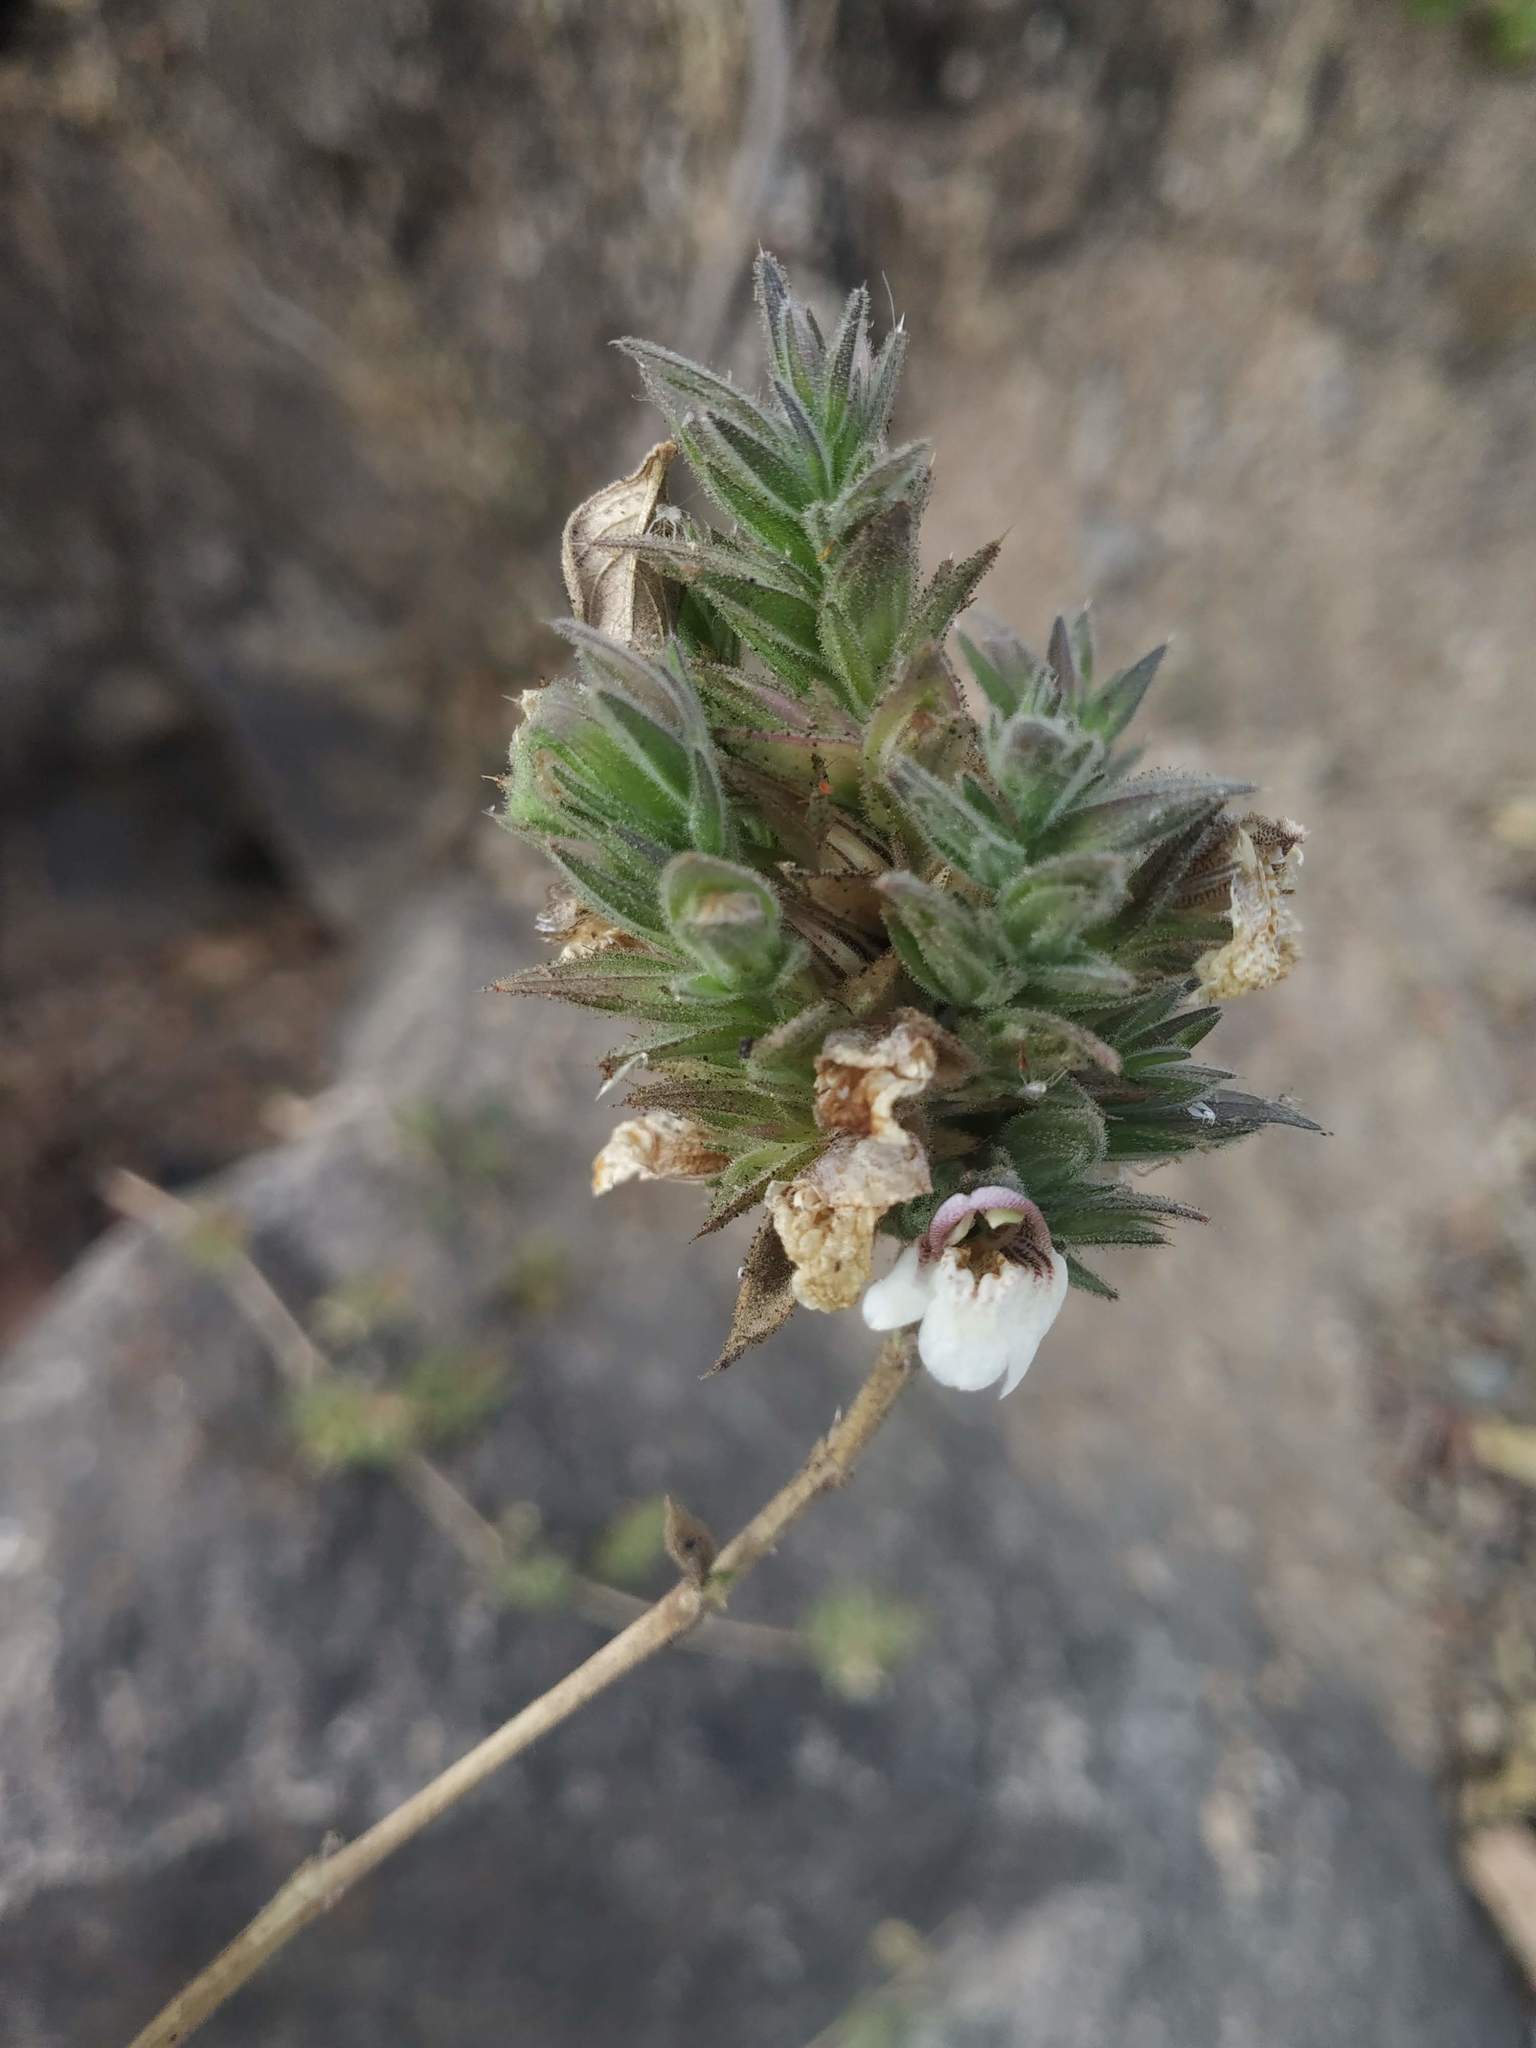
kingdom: Plantae
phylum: Tracheophyta
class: Magnoliopsida
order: Lamiales
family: Acanthaceae
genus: Lepidagathis
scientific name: Lepidagathis cuspidata
